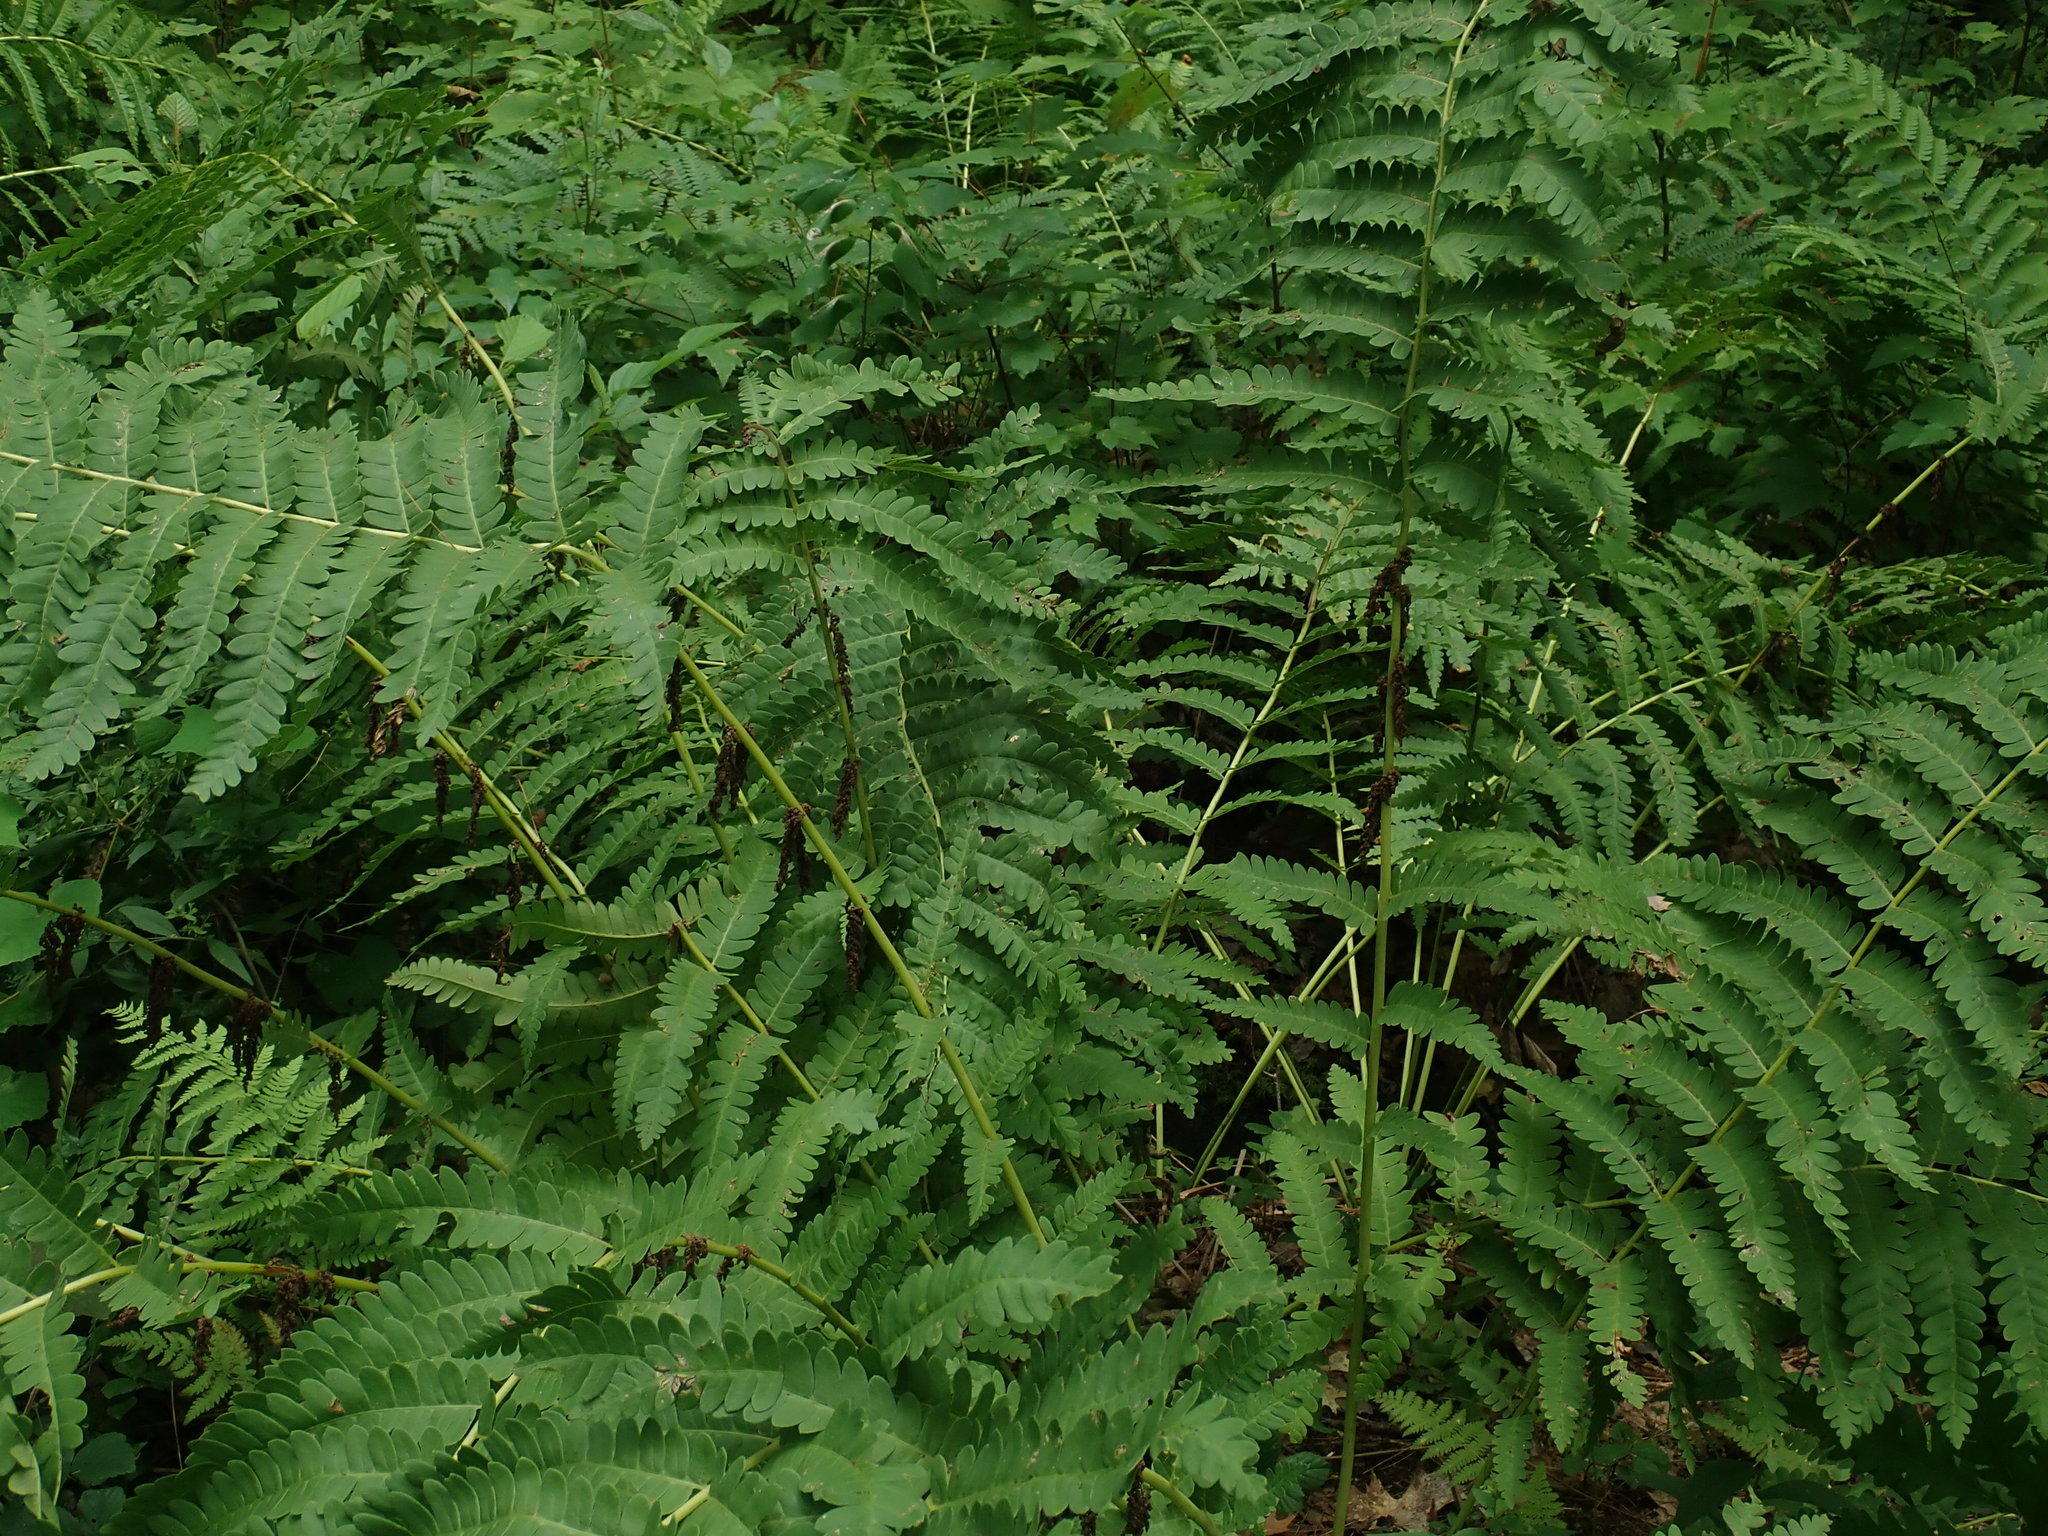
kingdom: Plantae
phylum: Tracheophyta
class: Polypodiopsida
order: Osmundales
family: Osmundaceae
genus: Claytosmunda
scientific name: Claytosmunda claytoniana
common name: Clayton's fern
